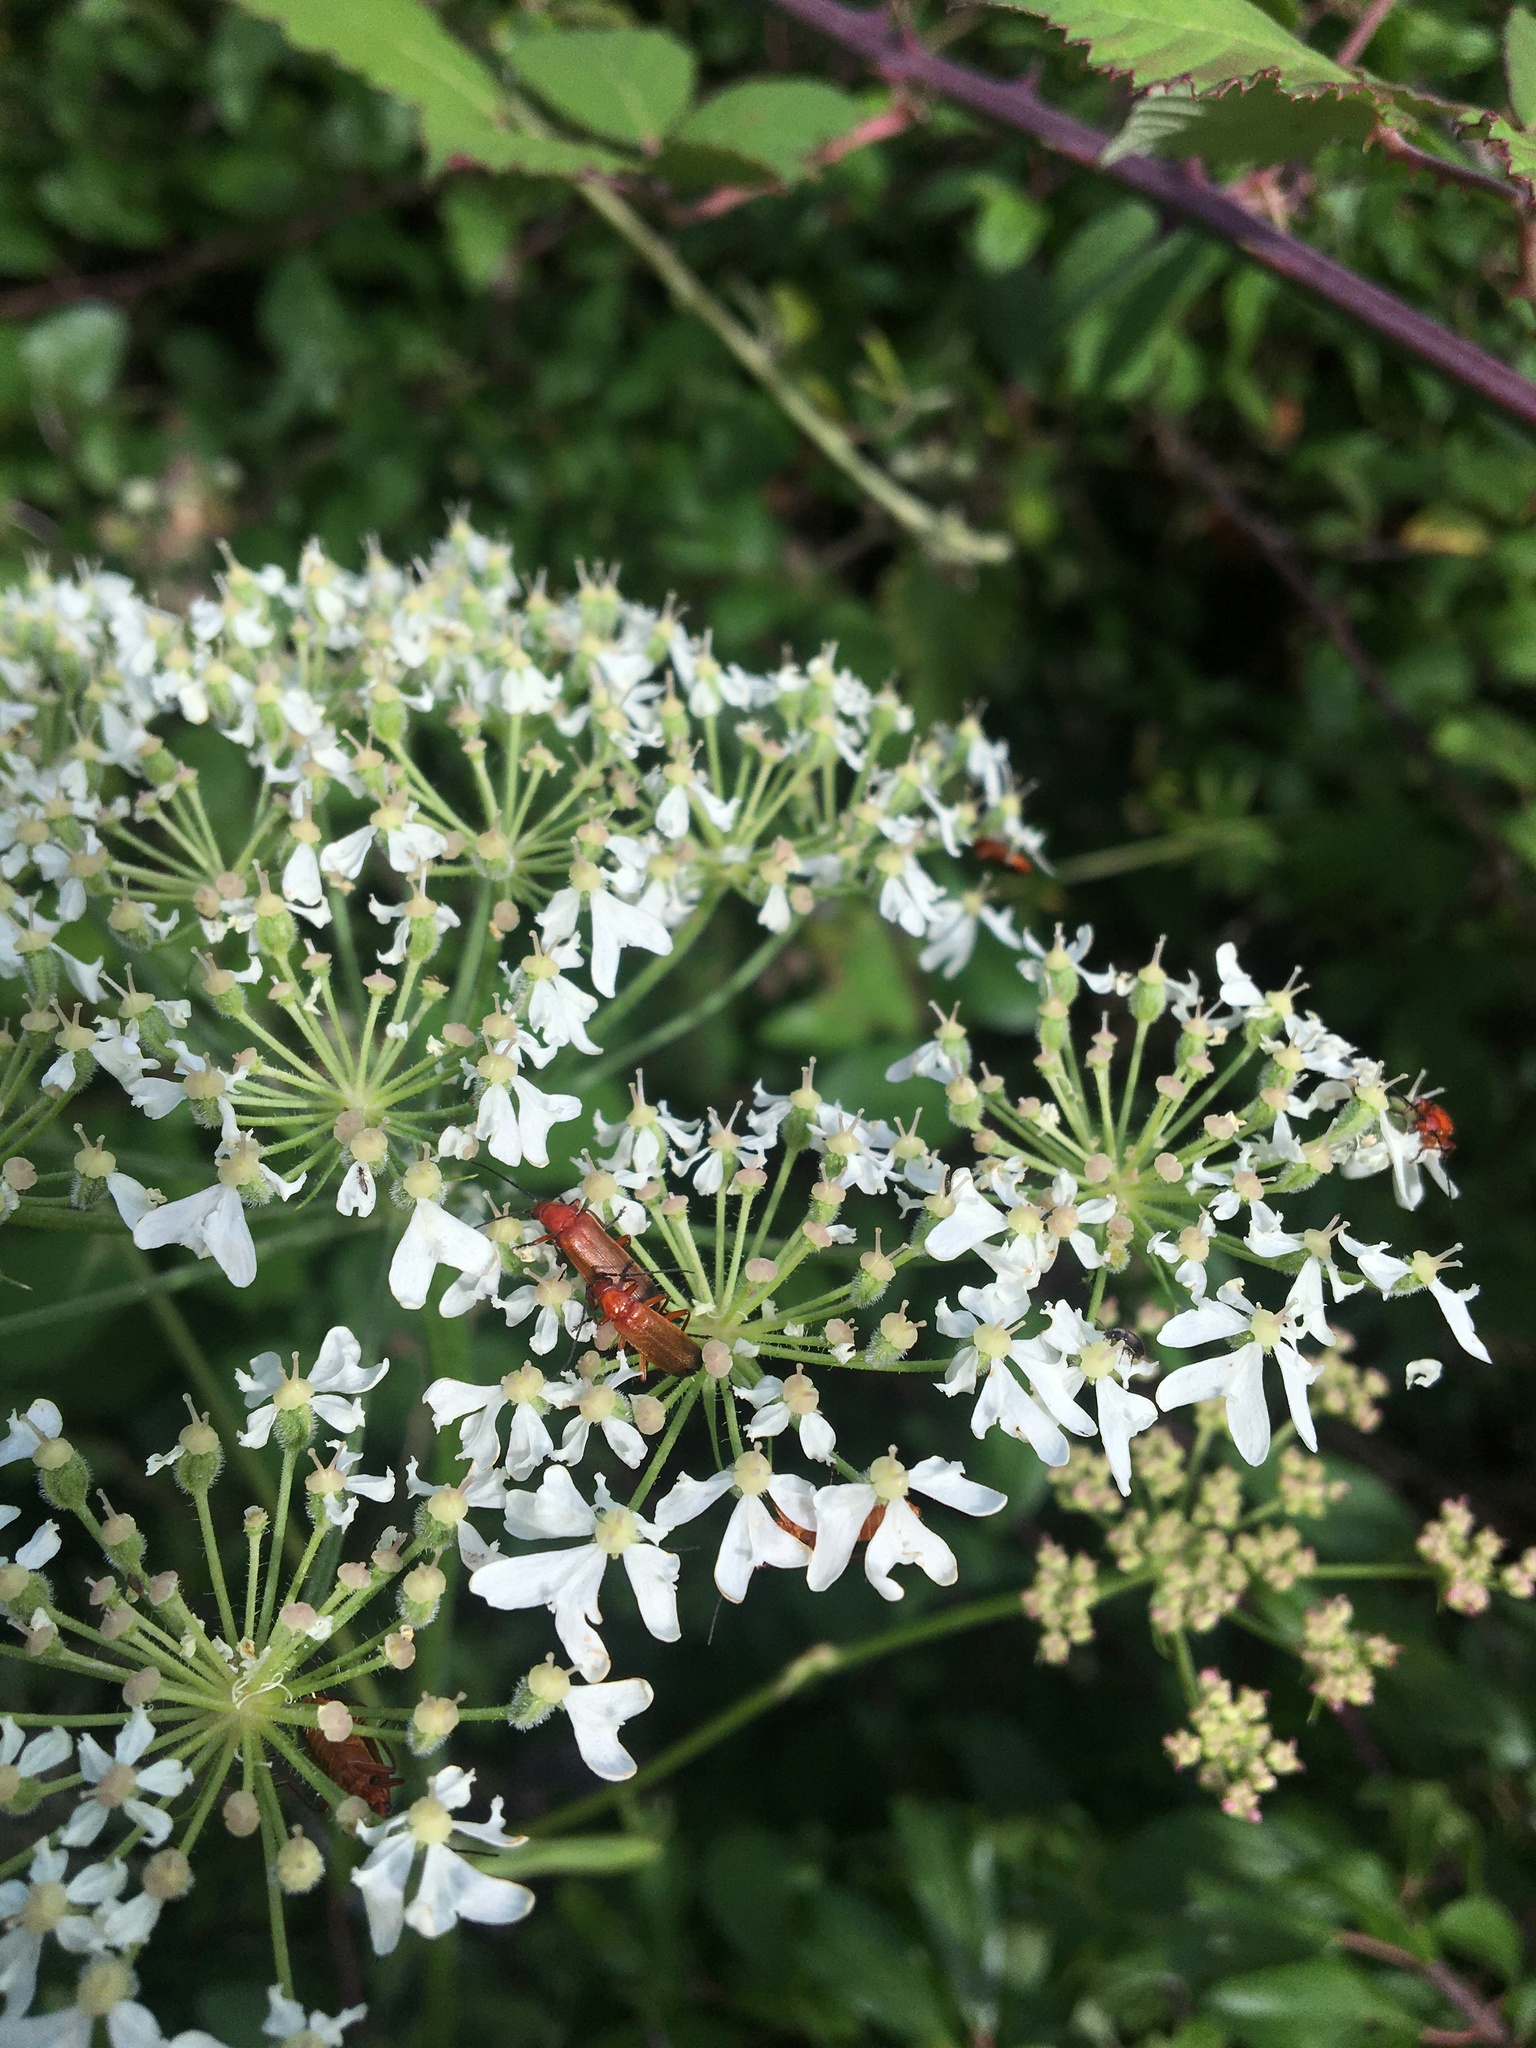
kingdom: Animalia
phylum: Arthropoda
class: Insecta
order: Coleoptera
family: Cantharidae
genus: Rhagonycha
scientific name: Rhagonycha fulva
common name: Common red soldier beetle
